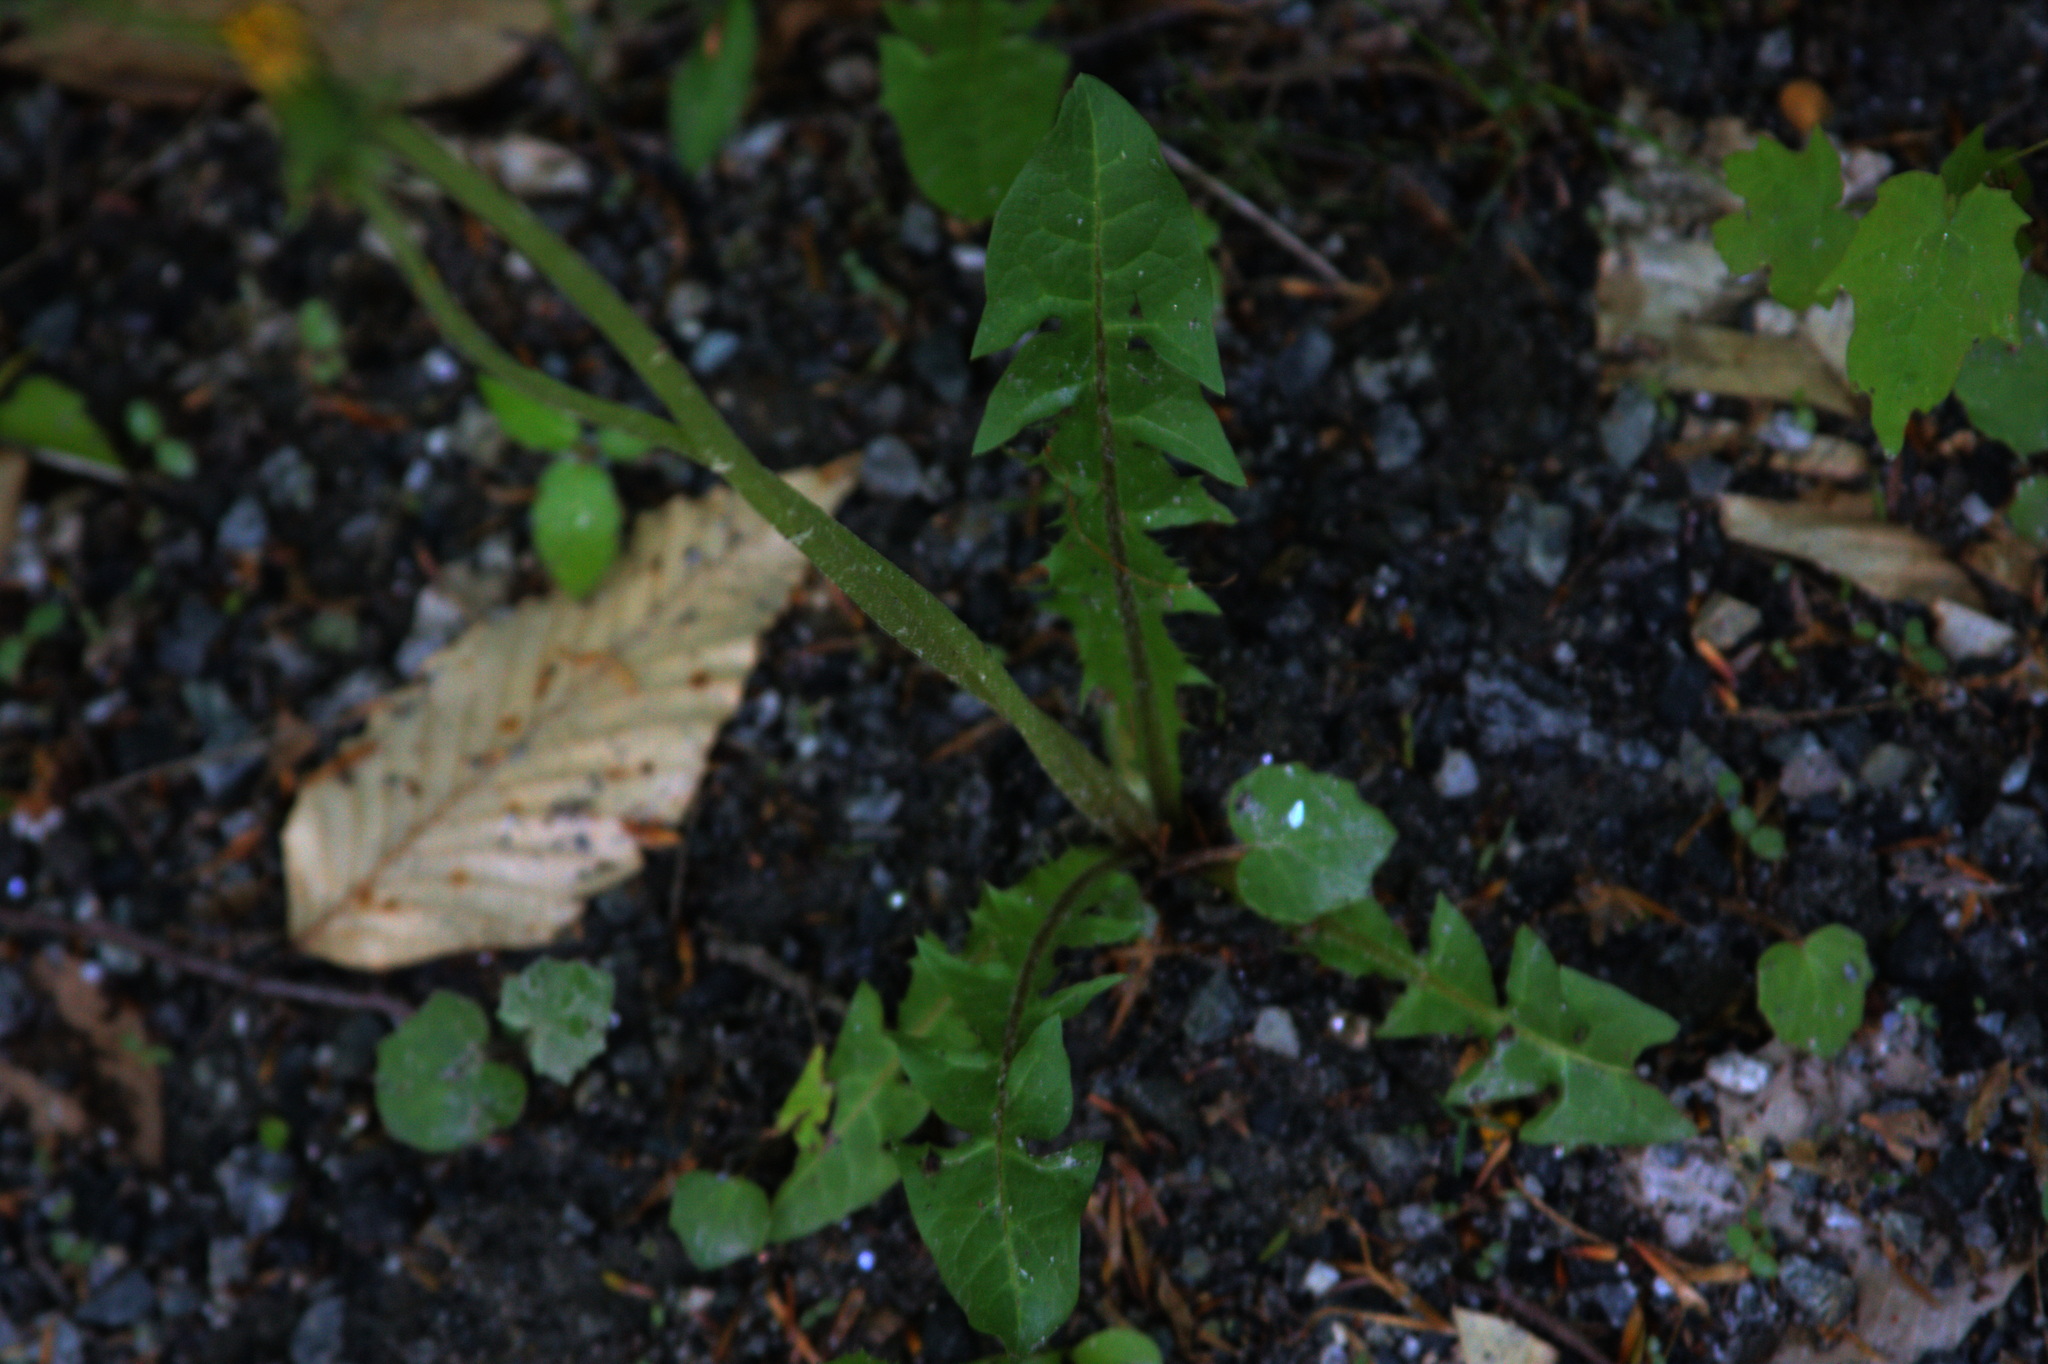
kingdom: Plantae
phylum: Tracheophyta
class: Magnoliopsida
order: Asterales
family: Asteraceae
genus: Taraxacum
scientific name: Taraxacum officinale
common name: Common dandelion
